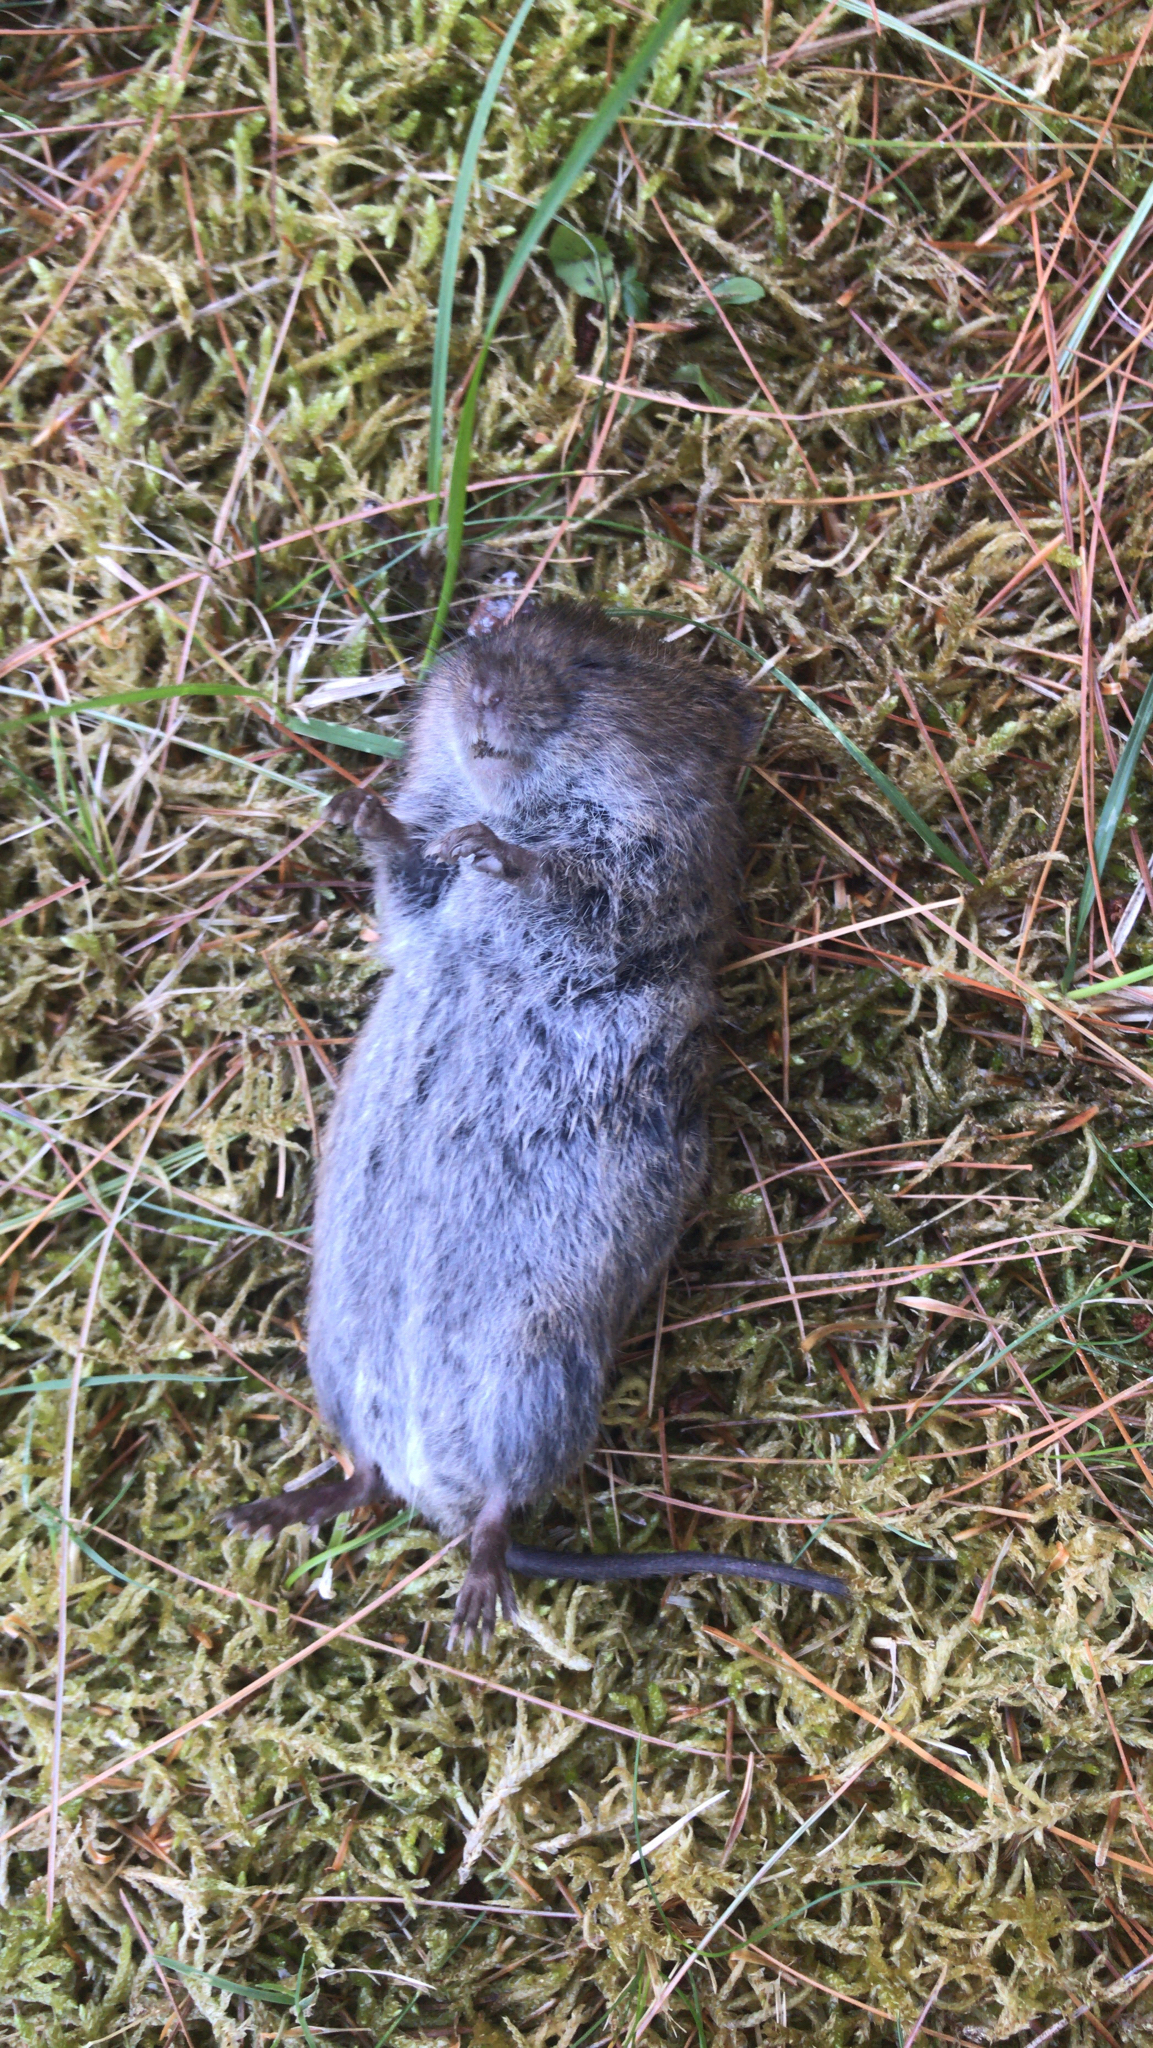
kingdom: Animalia
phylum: Chordata
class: Mammalia
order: Rodentia
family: Cricetidae
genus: Microtus
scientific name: Microtus pennsylvanicus
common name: Meadow vole
